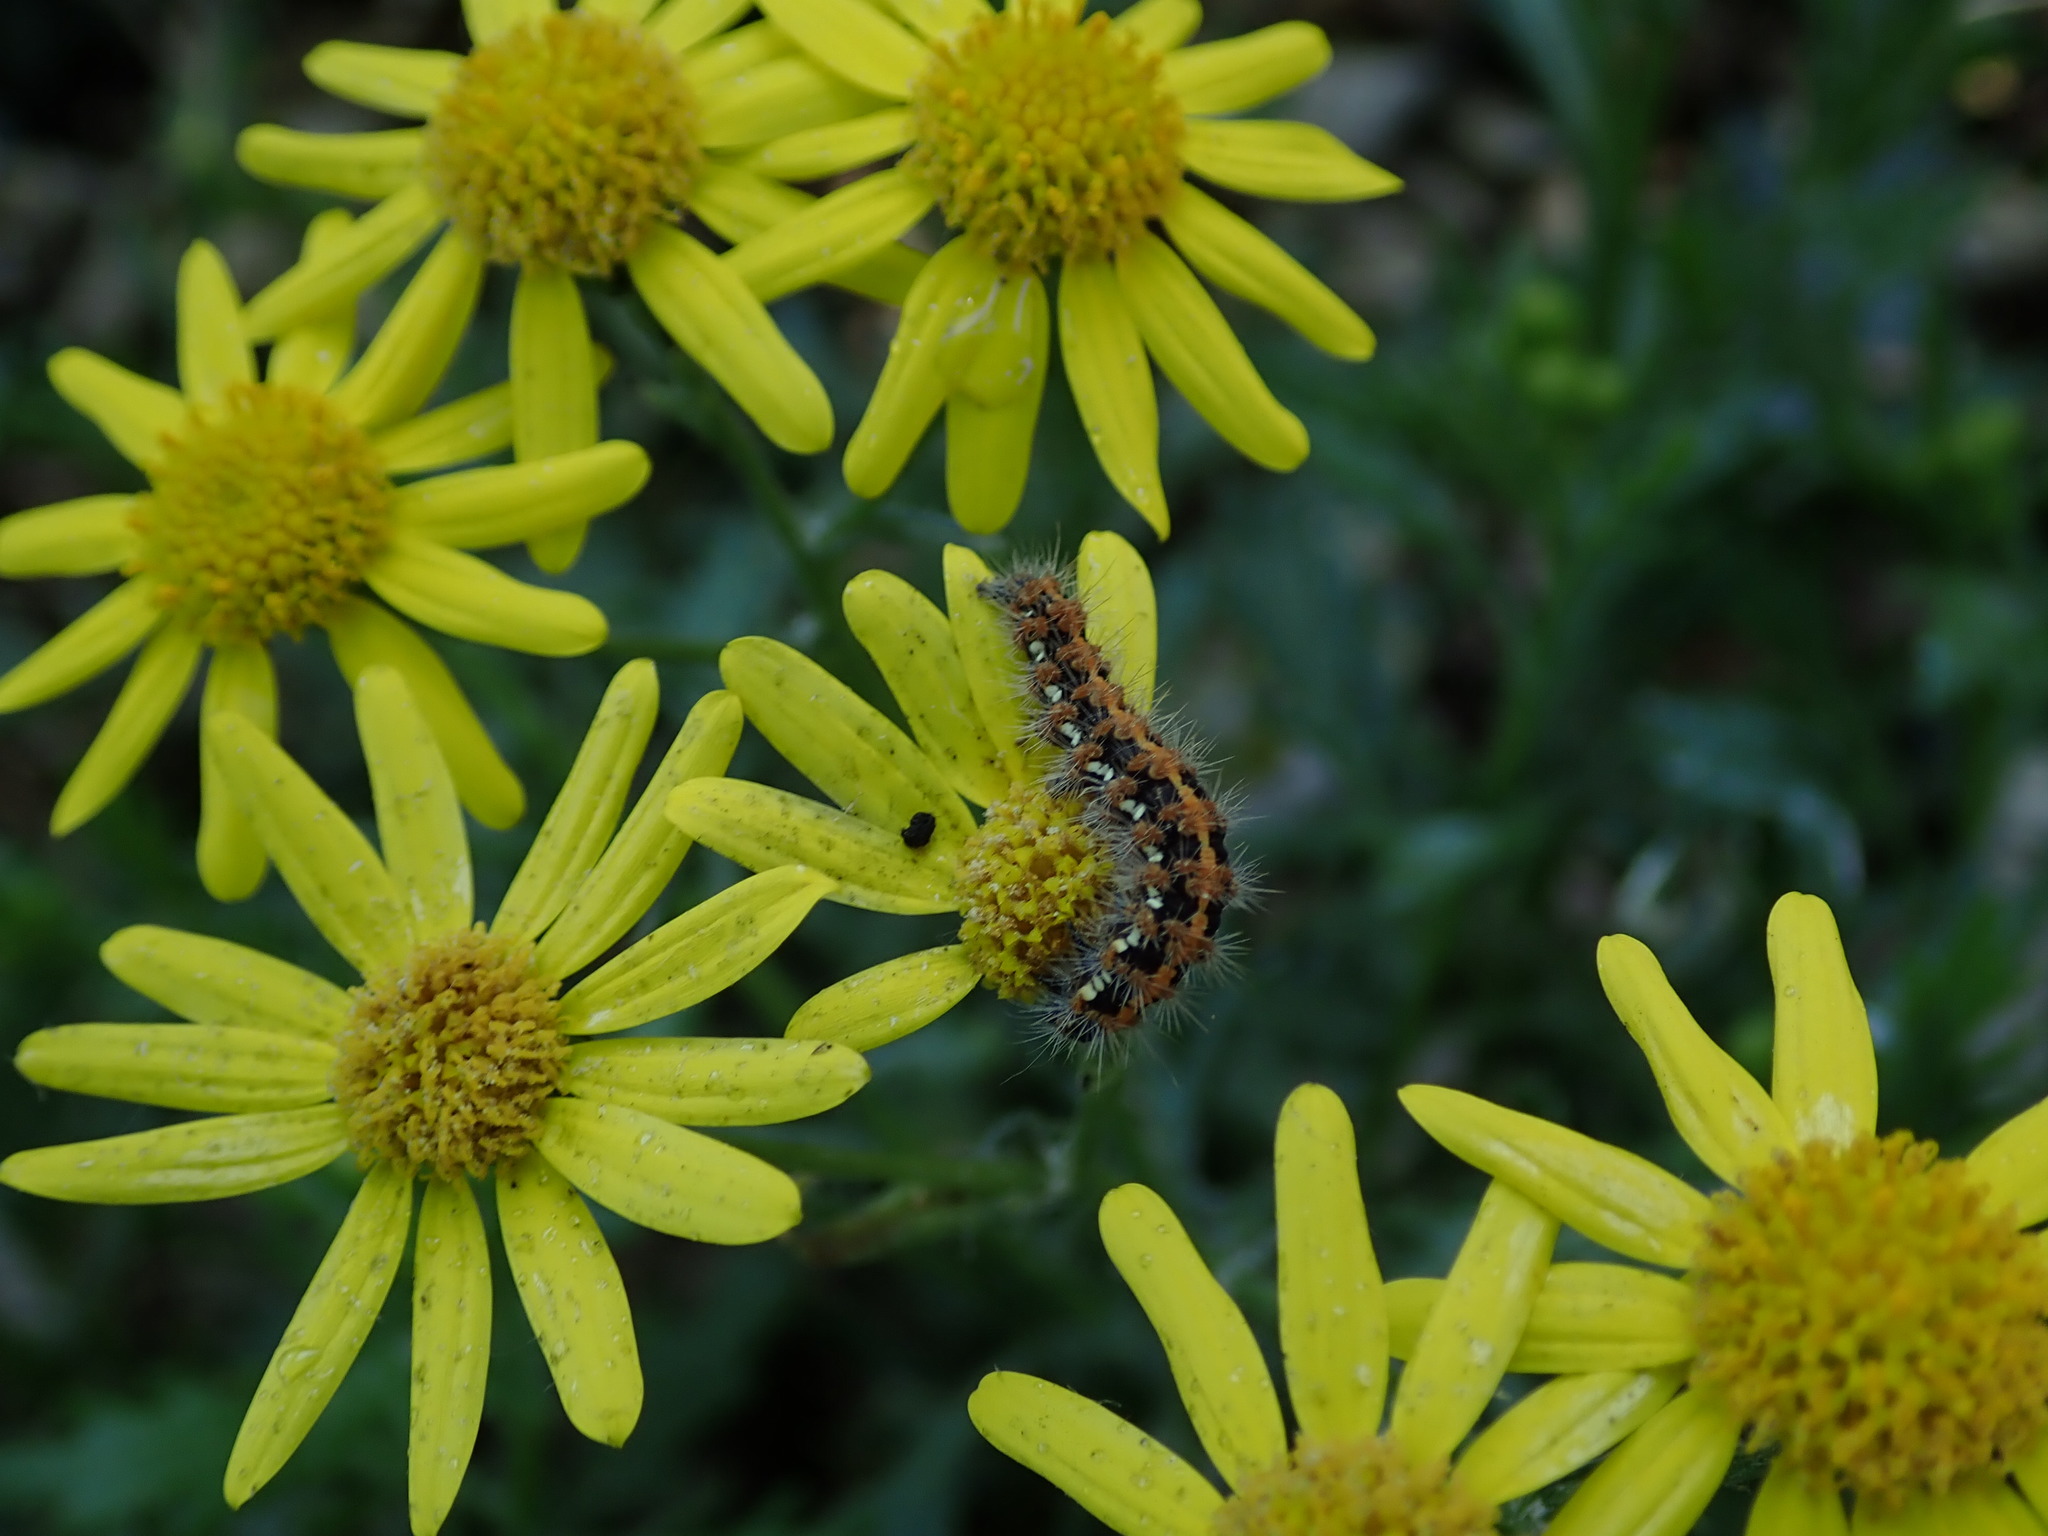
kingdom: Animalia
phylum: Arthropoda
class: Insecta
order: Lepidoptera
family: Erebidae
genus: Euplagia
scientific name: Euplagia quadripunctaria
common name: Jersey tiger
